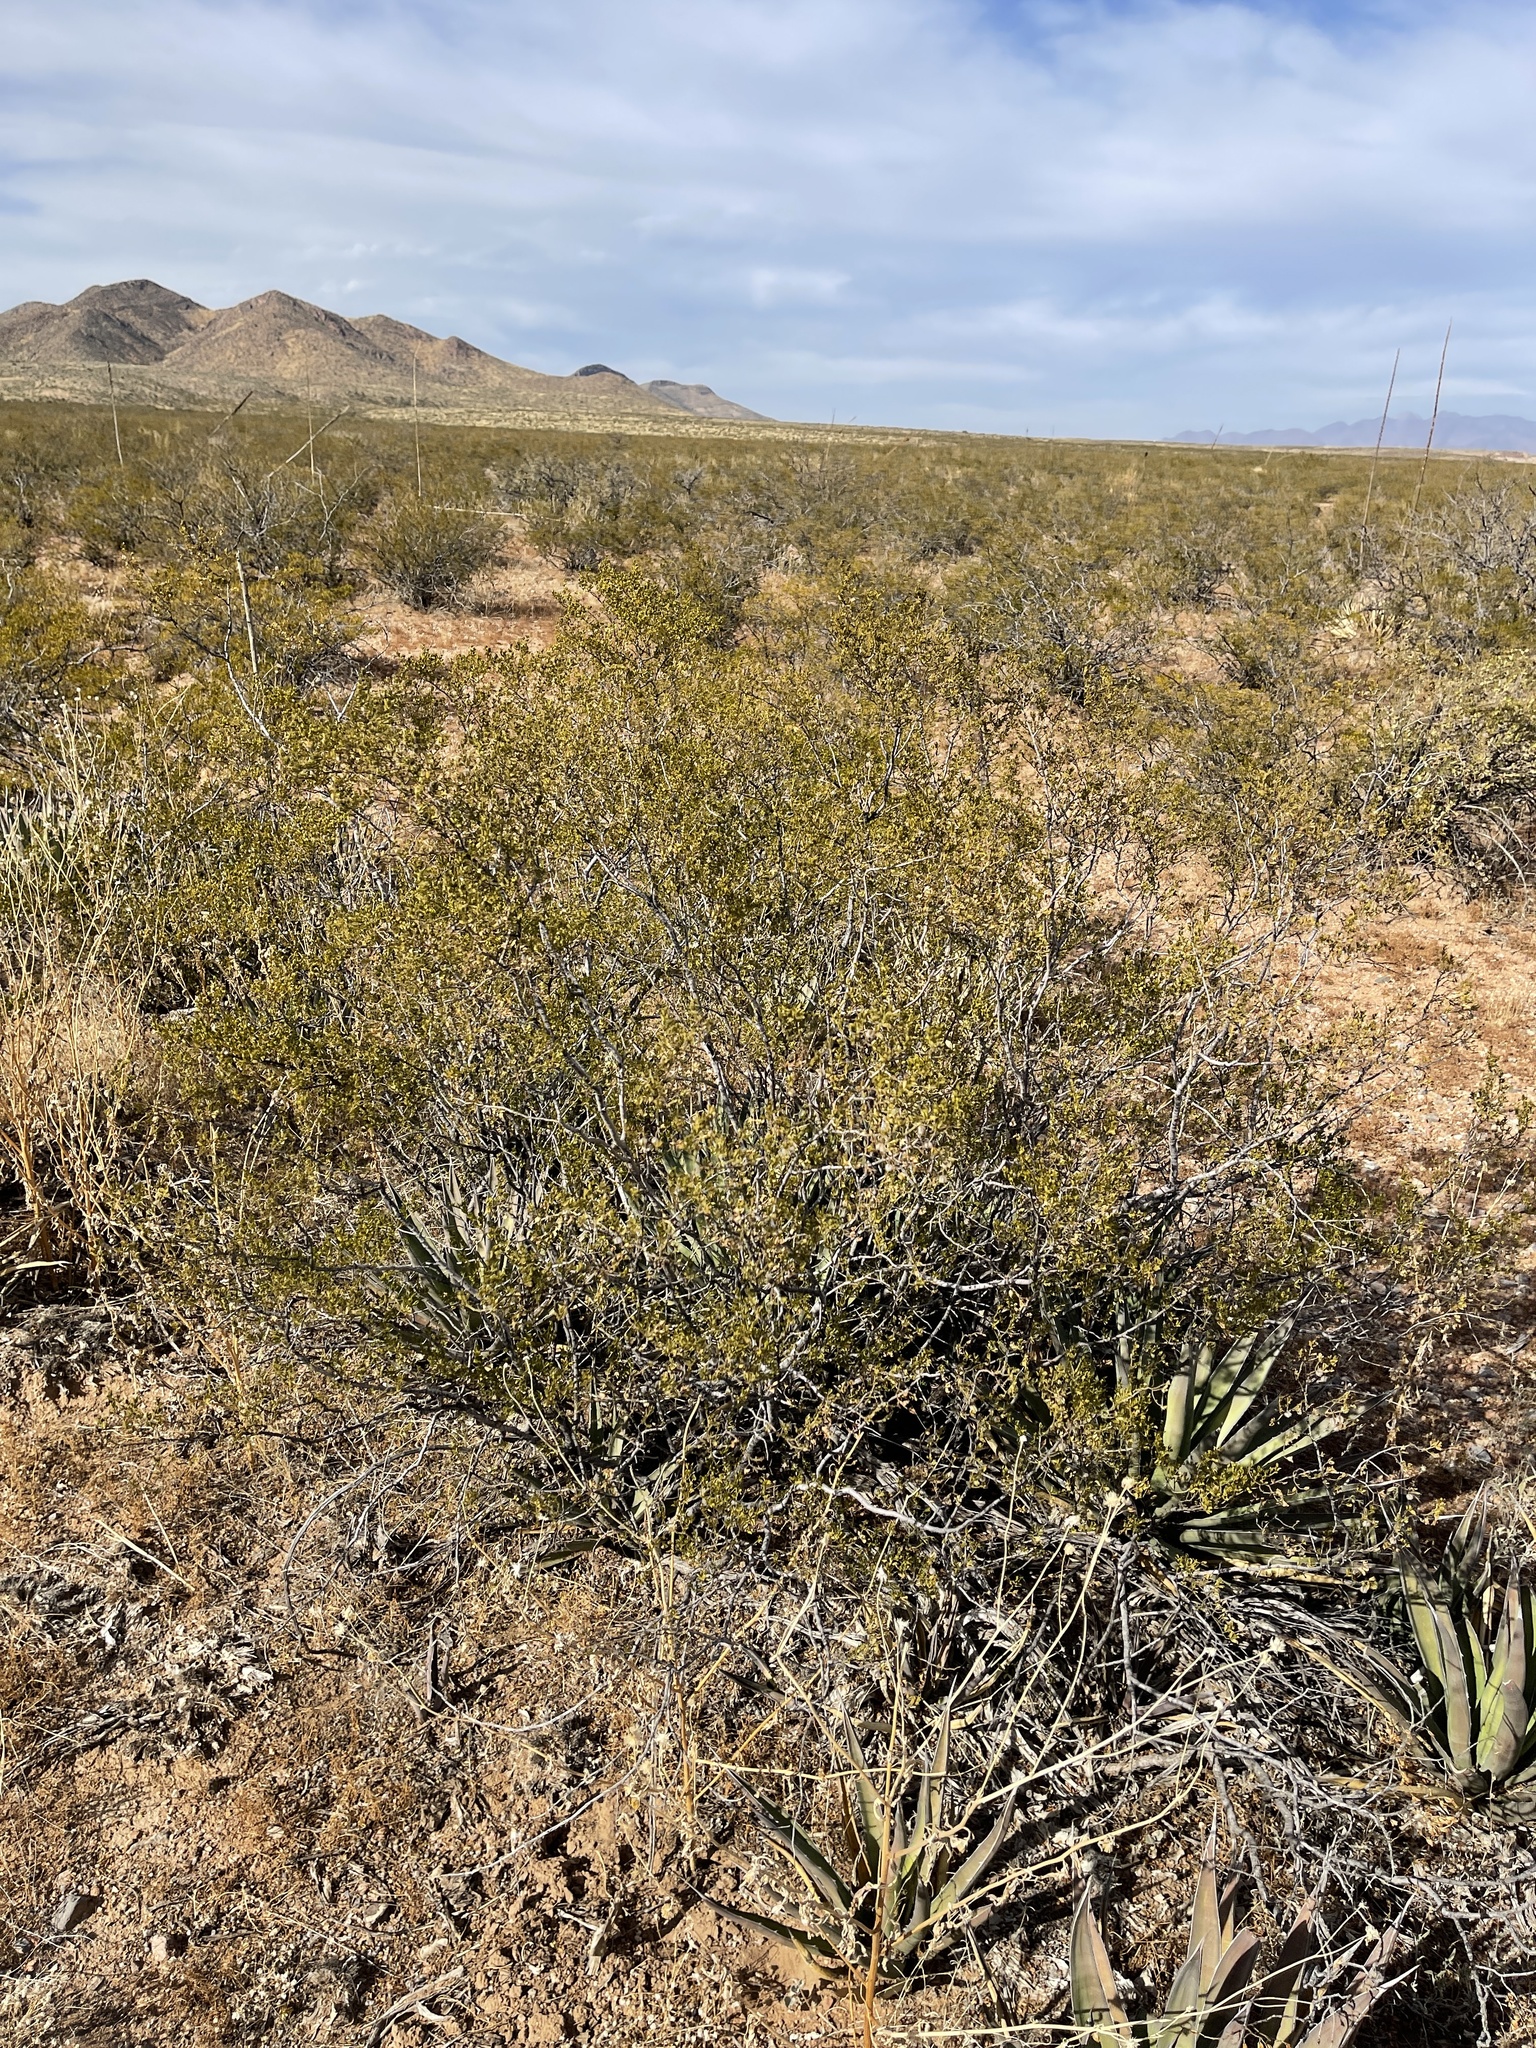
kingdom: Plantae
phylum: Tracheophyta
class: Magnoliopsida
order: Zygophyllales
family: Zygophyllaceae
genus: Larrea
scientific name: Larrea tridentata
